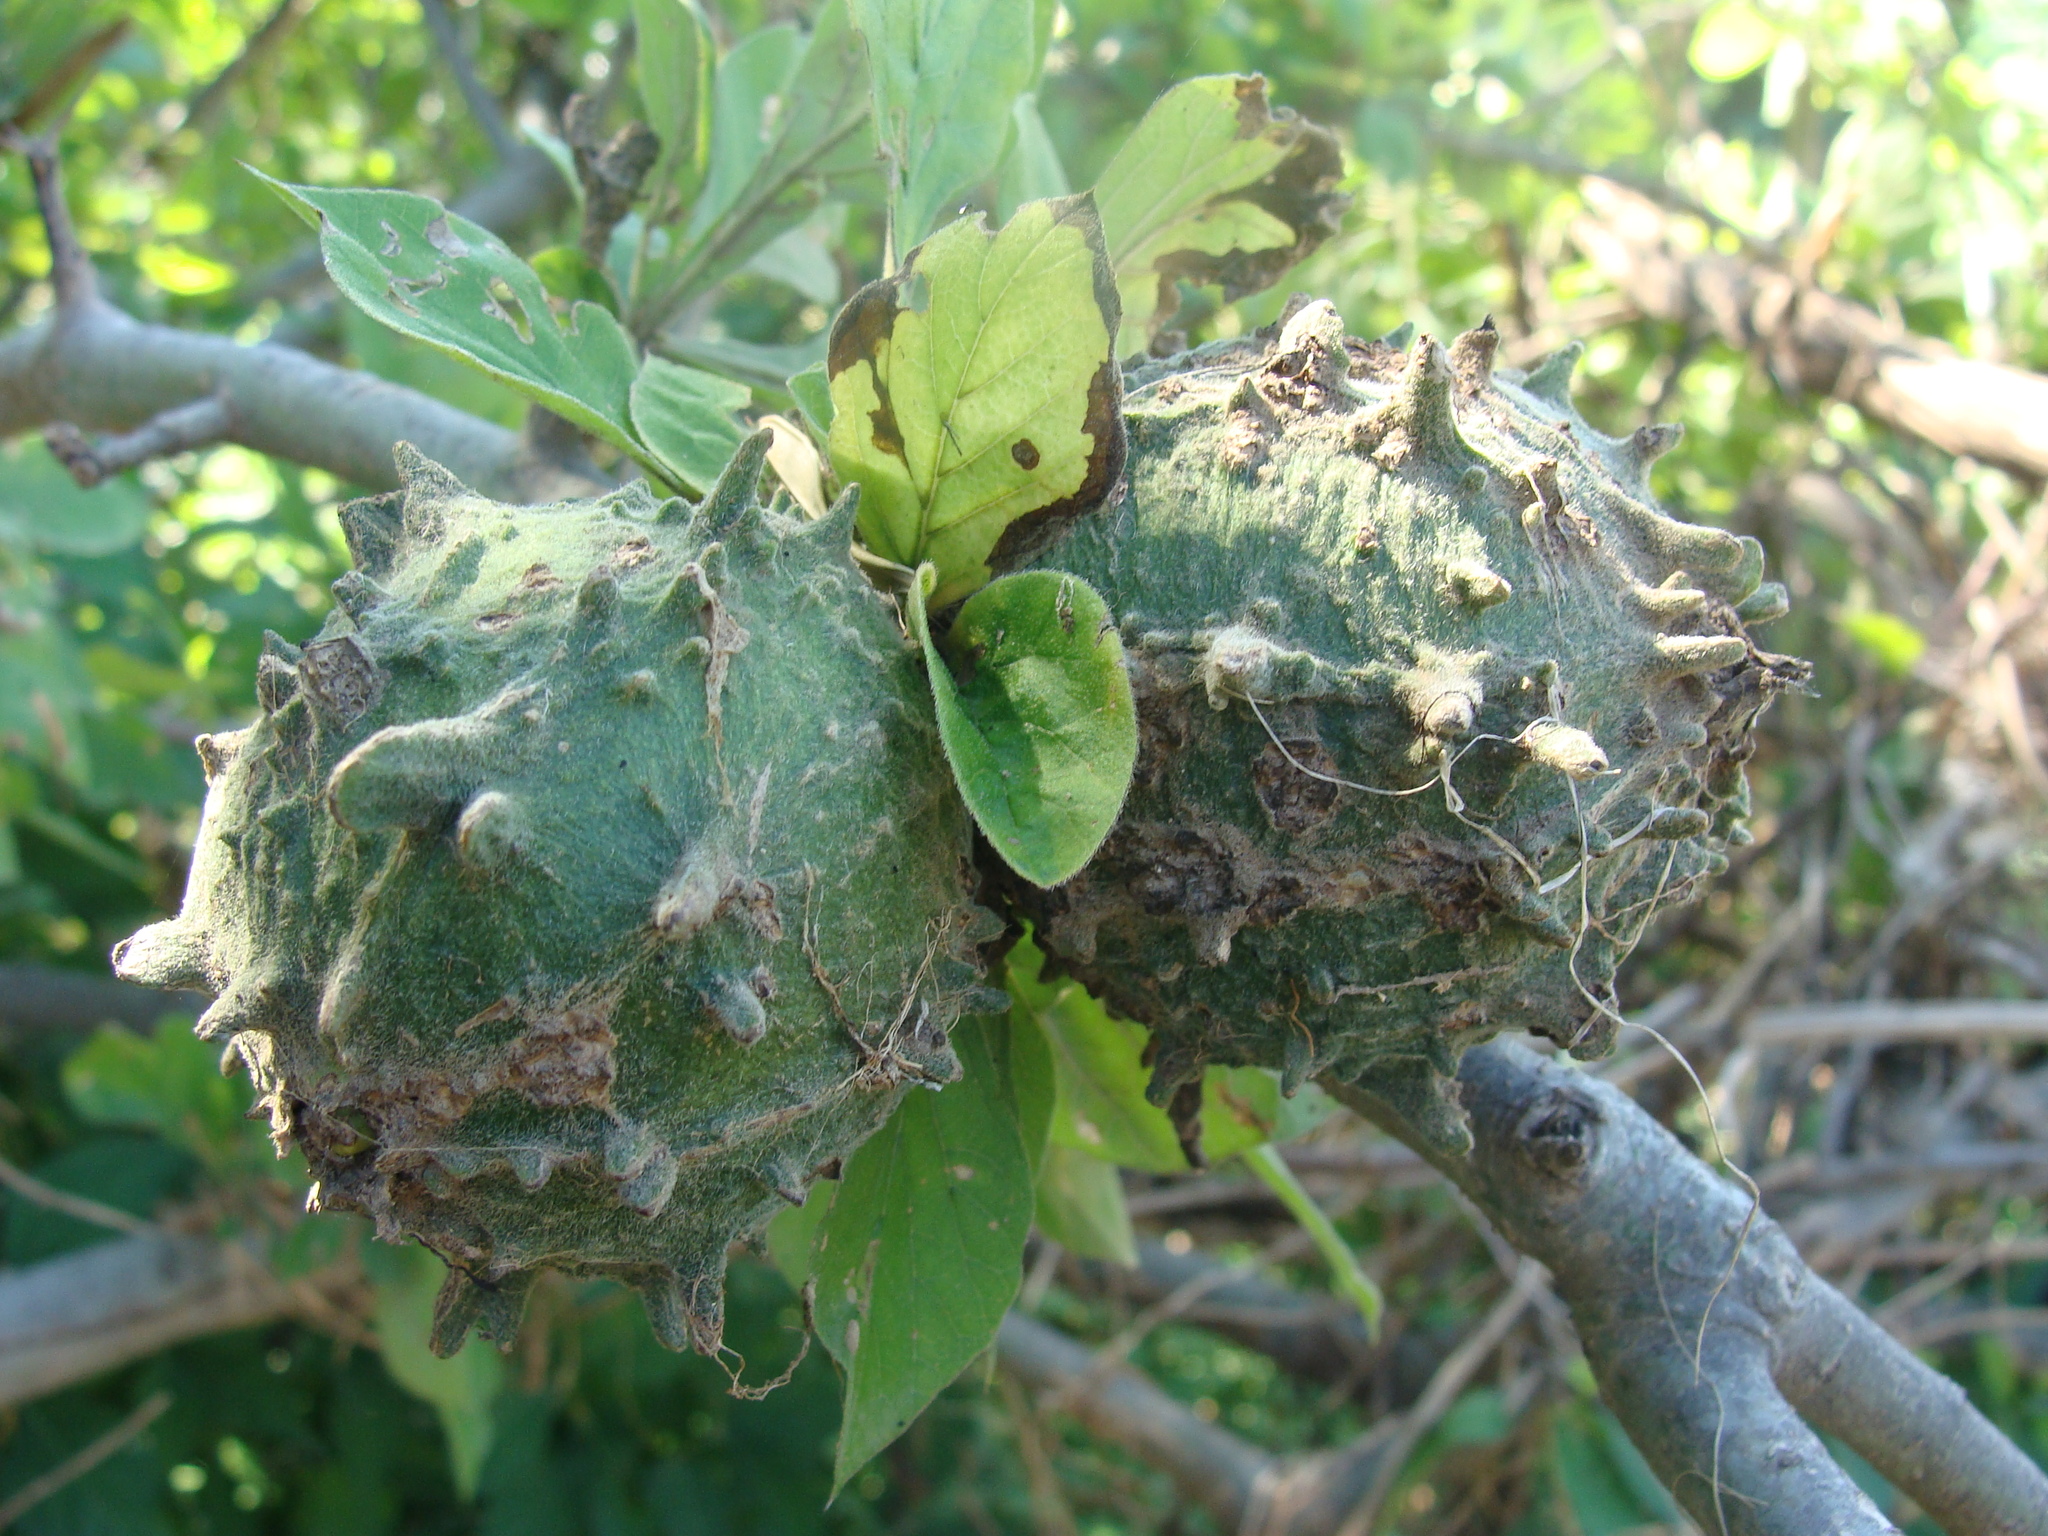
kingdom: Plantae
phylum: Tracheophyta
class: Magnoliopsida
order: Gentianales
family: Rubiaceae
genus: Randia
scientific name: Randia echinocarpa
